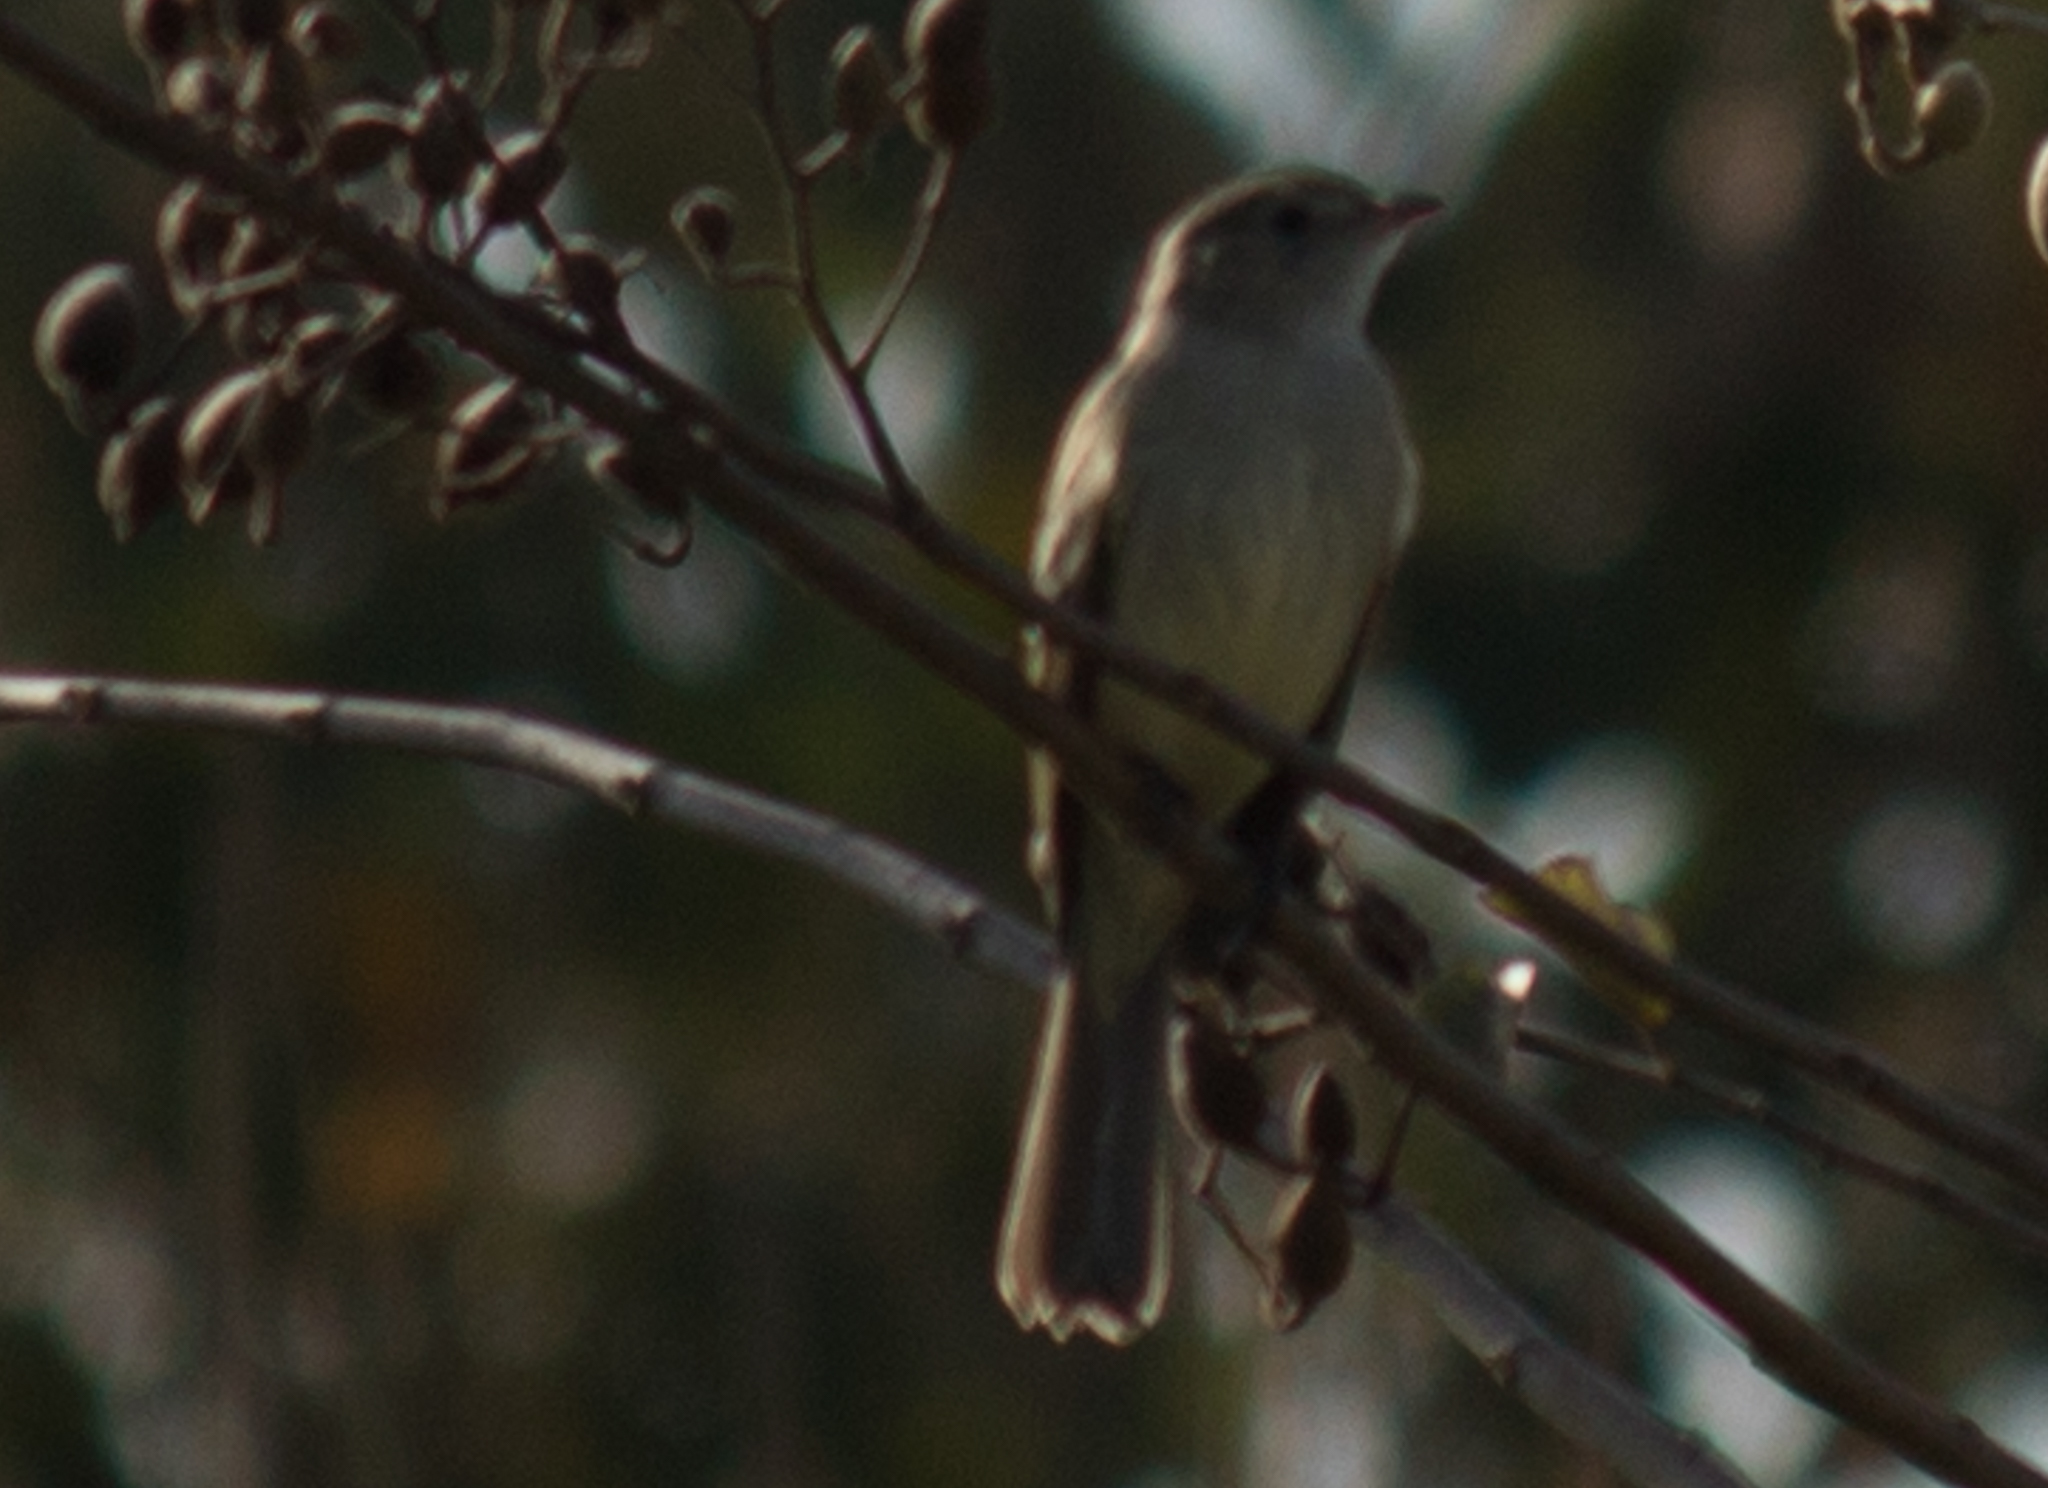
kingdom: Animalia
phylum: Chordata
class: Aves
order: Passeriformes
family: Tyrannidae
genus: Elaenia
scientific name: Elaenia flavogaster
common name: Yellow-bellied elaenia
